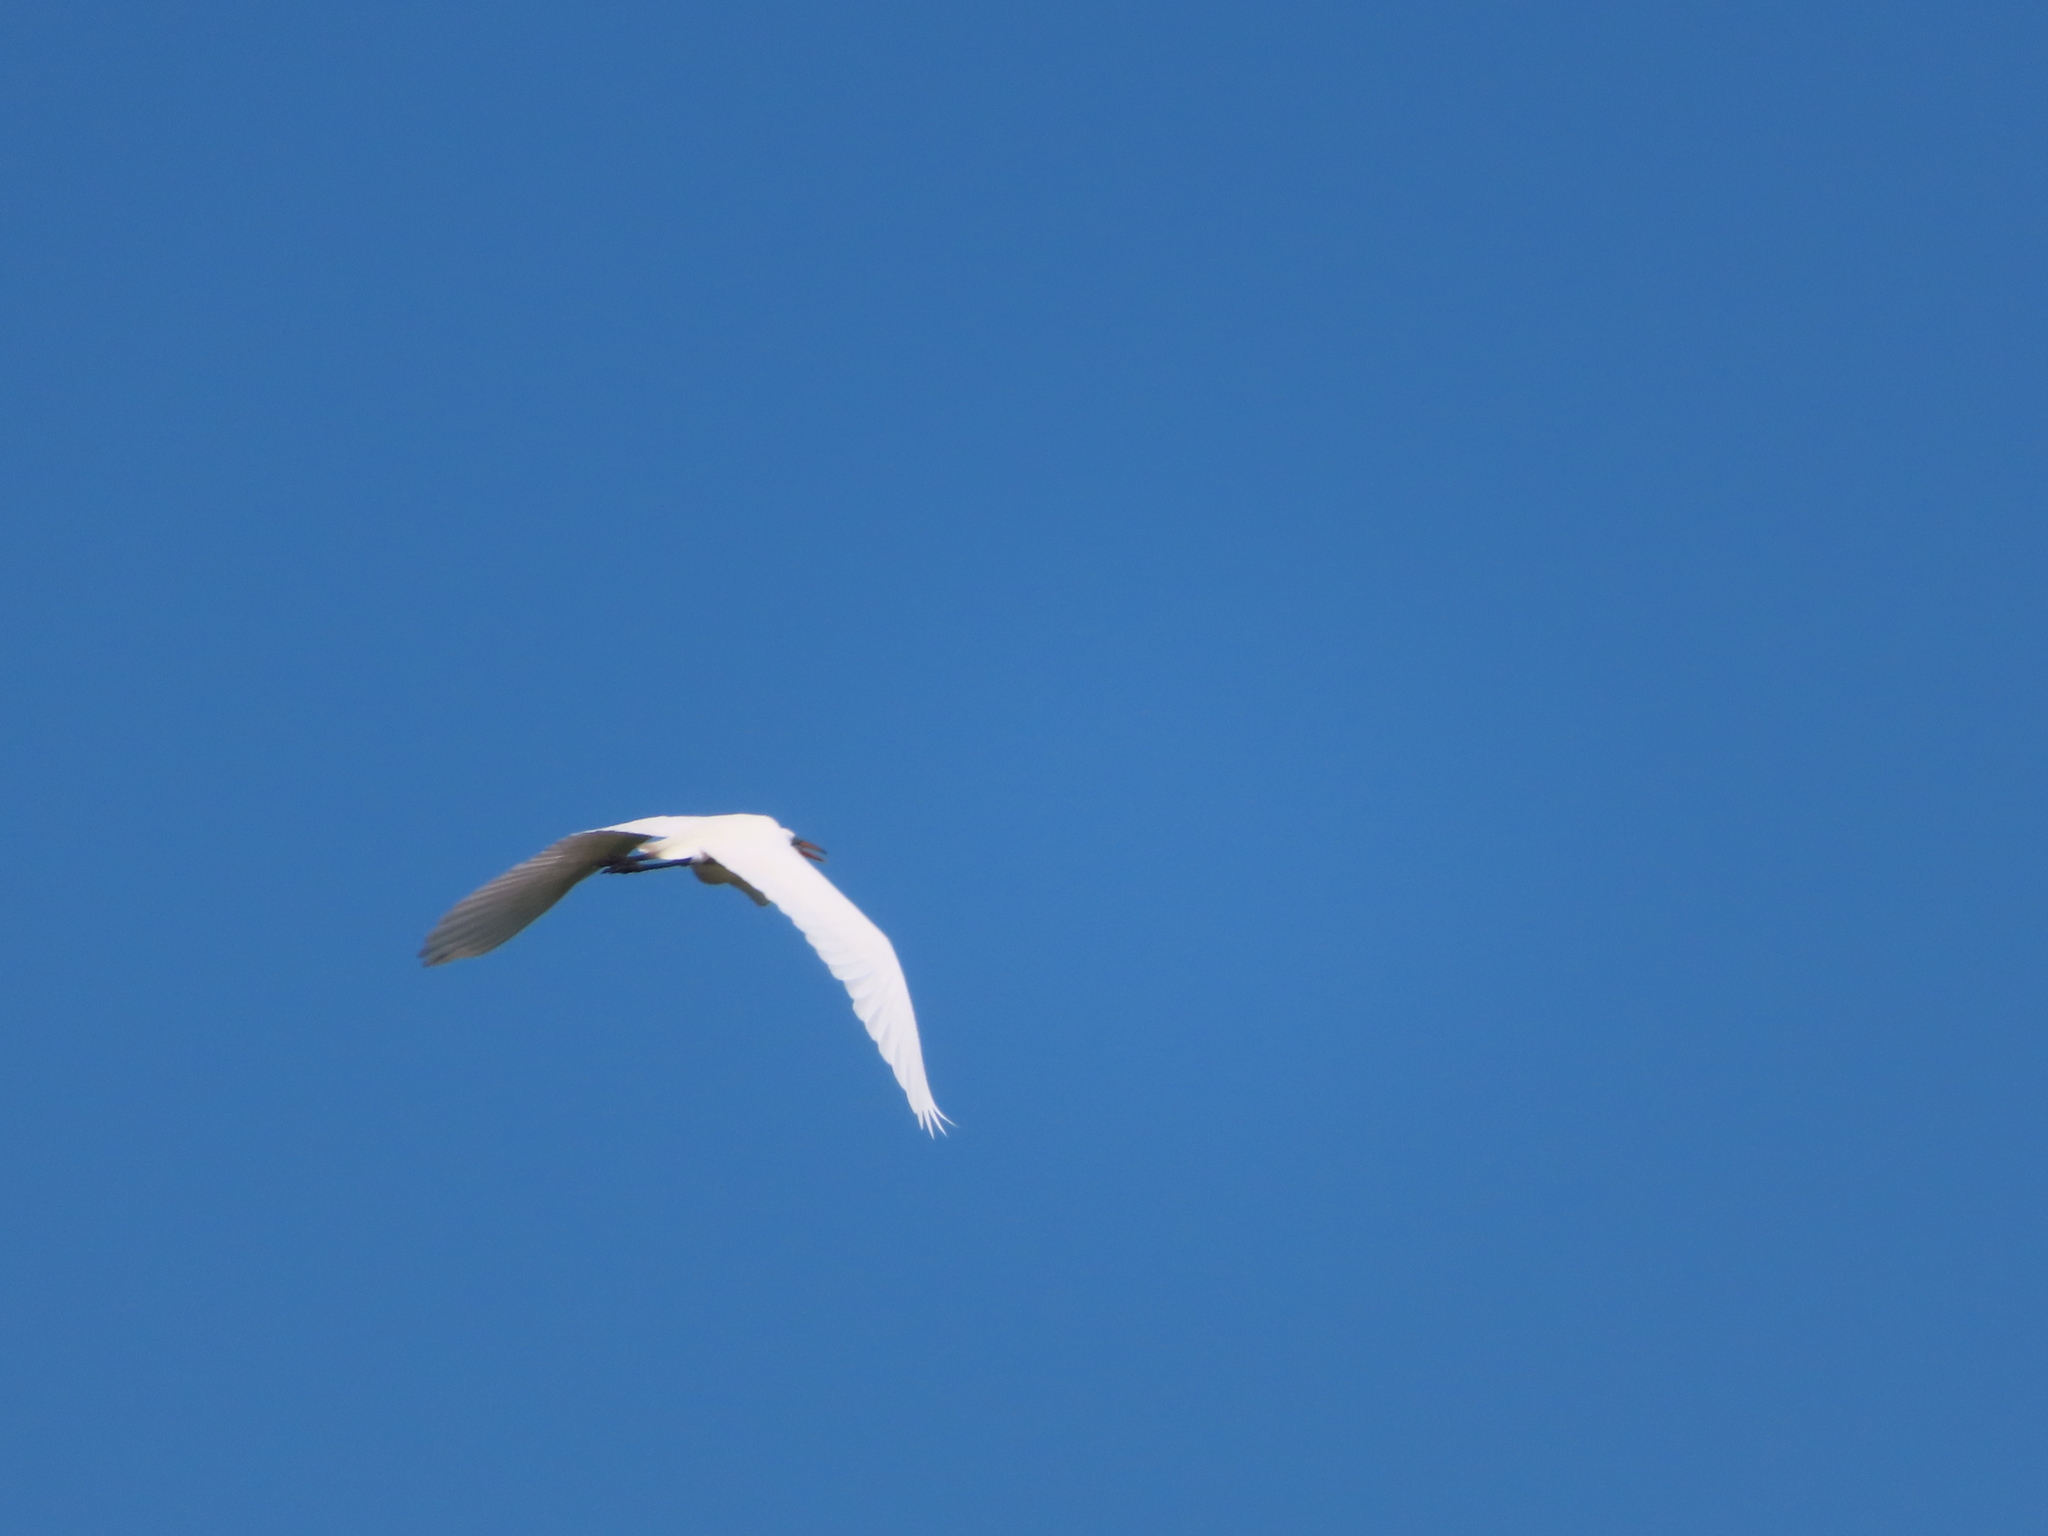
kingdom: Animalia
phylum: Chordata
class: Aves
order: Pelecaniformes
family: Ardeidae
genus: Ardea
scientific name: Ardea alba
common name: Great egret
